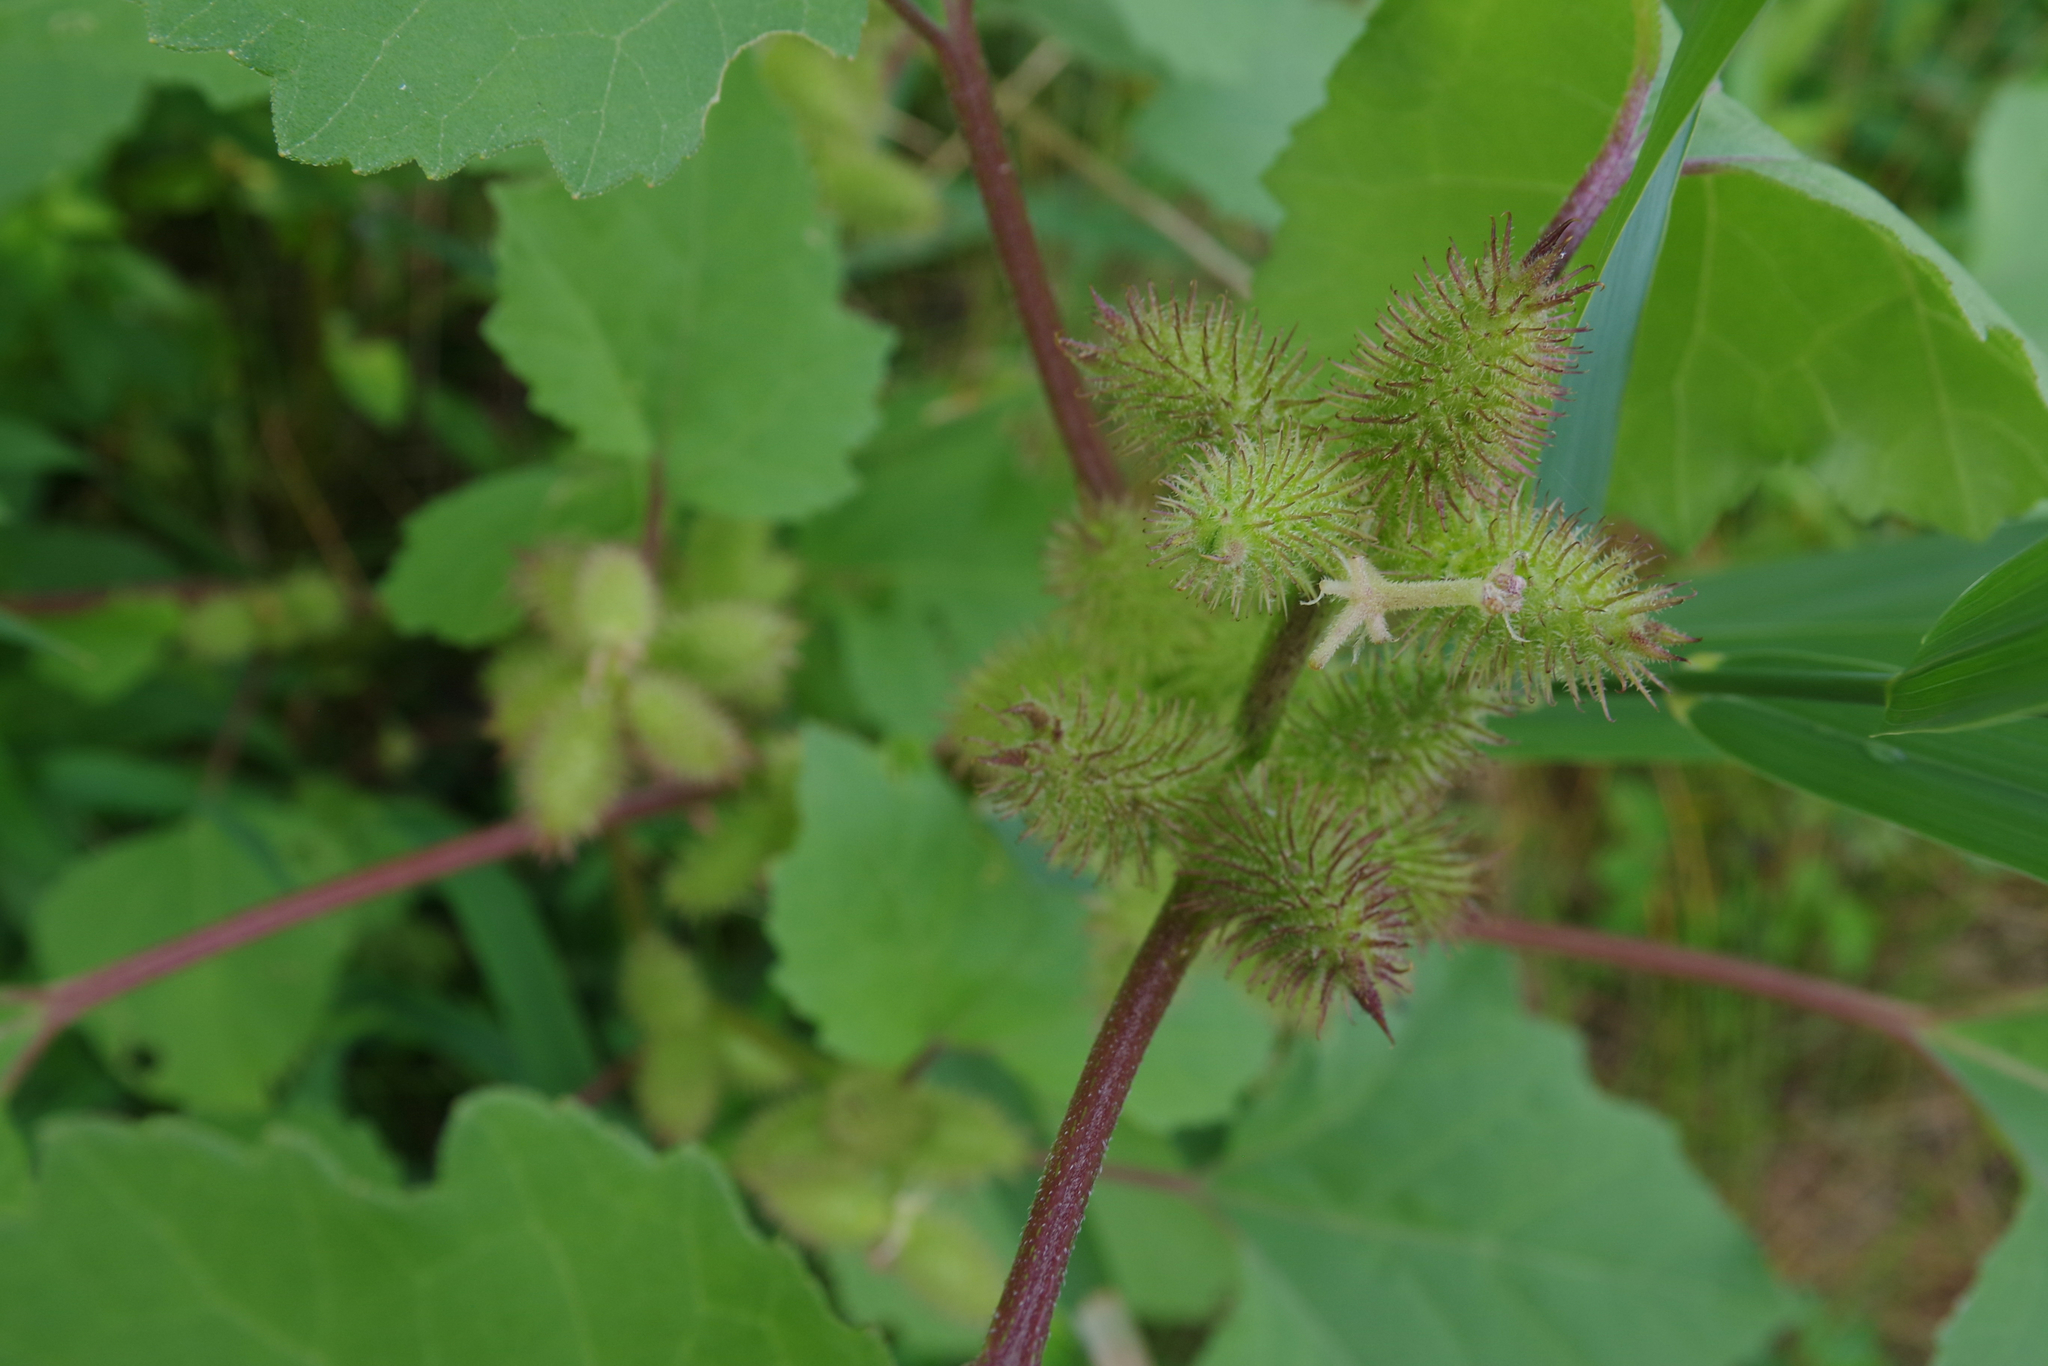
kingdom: Plantae
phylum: Tracheophyta
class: Magnoliopsida
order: Asterales
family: Asteraceae
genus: Xanthium
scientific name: Xanthium strumarium
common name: Rough cocklebur
